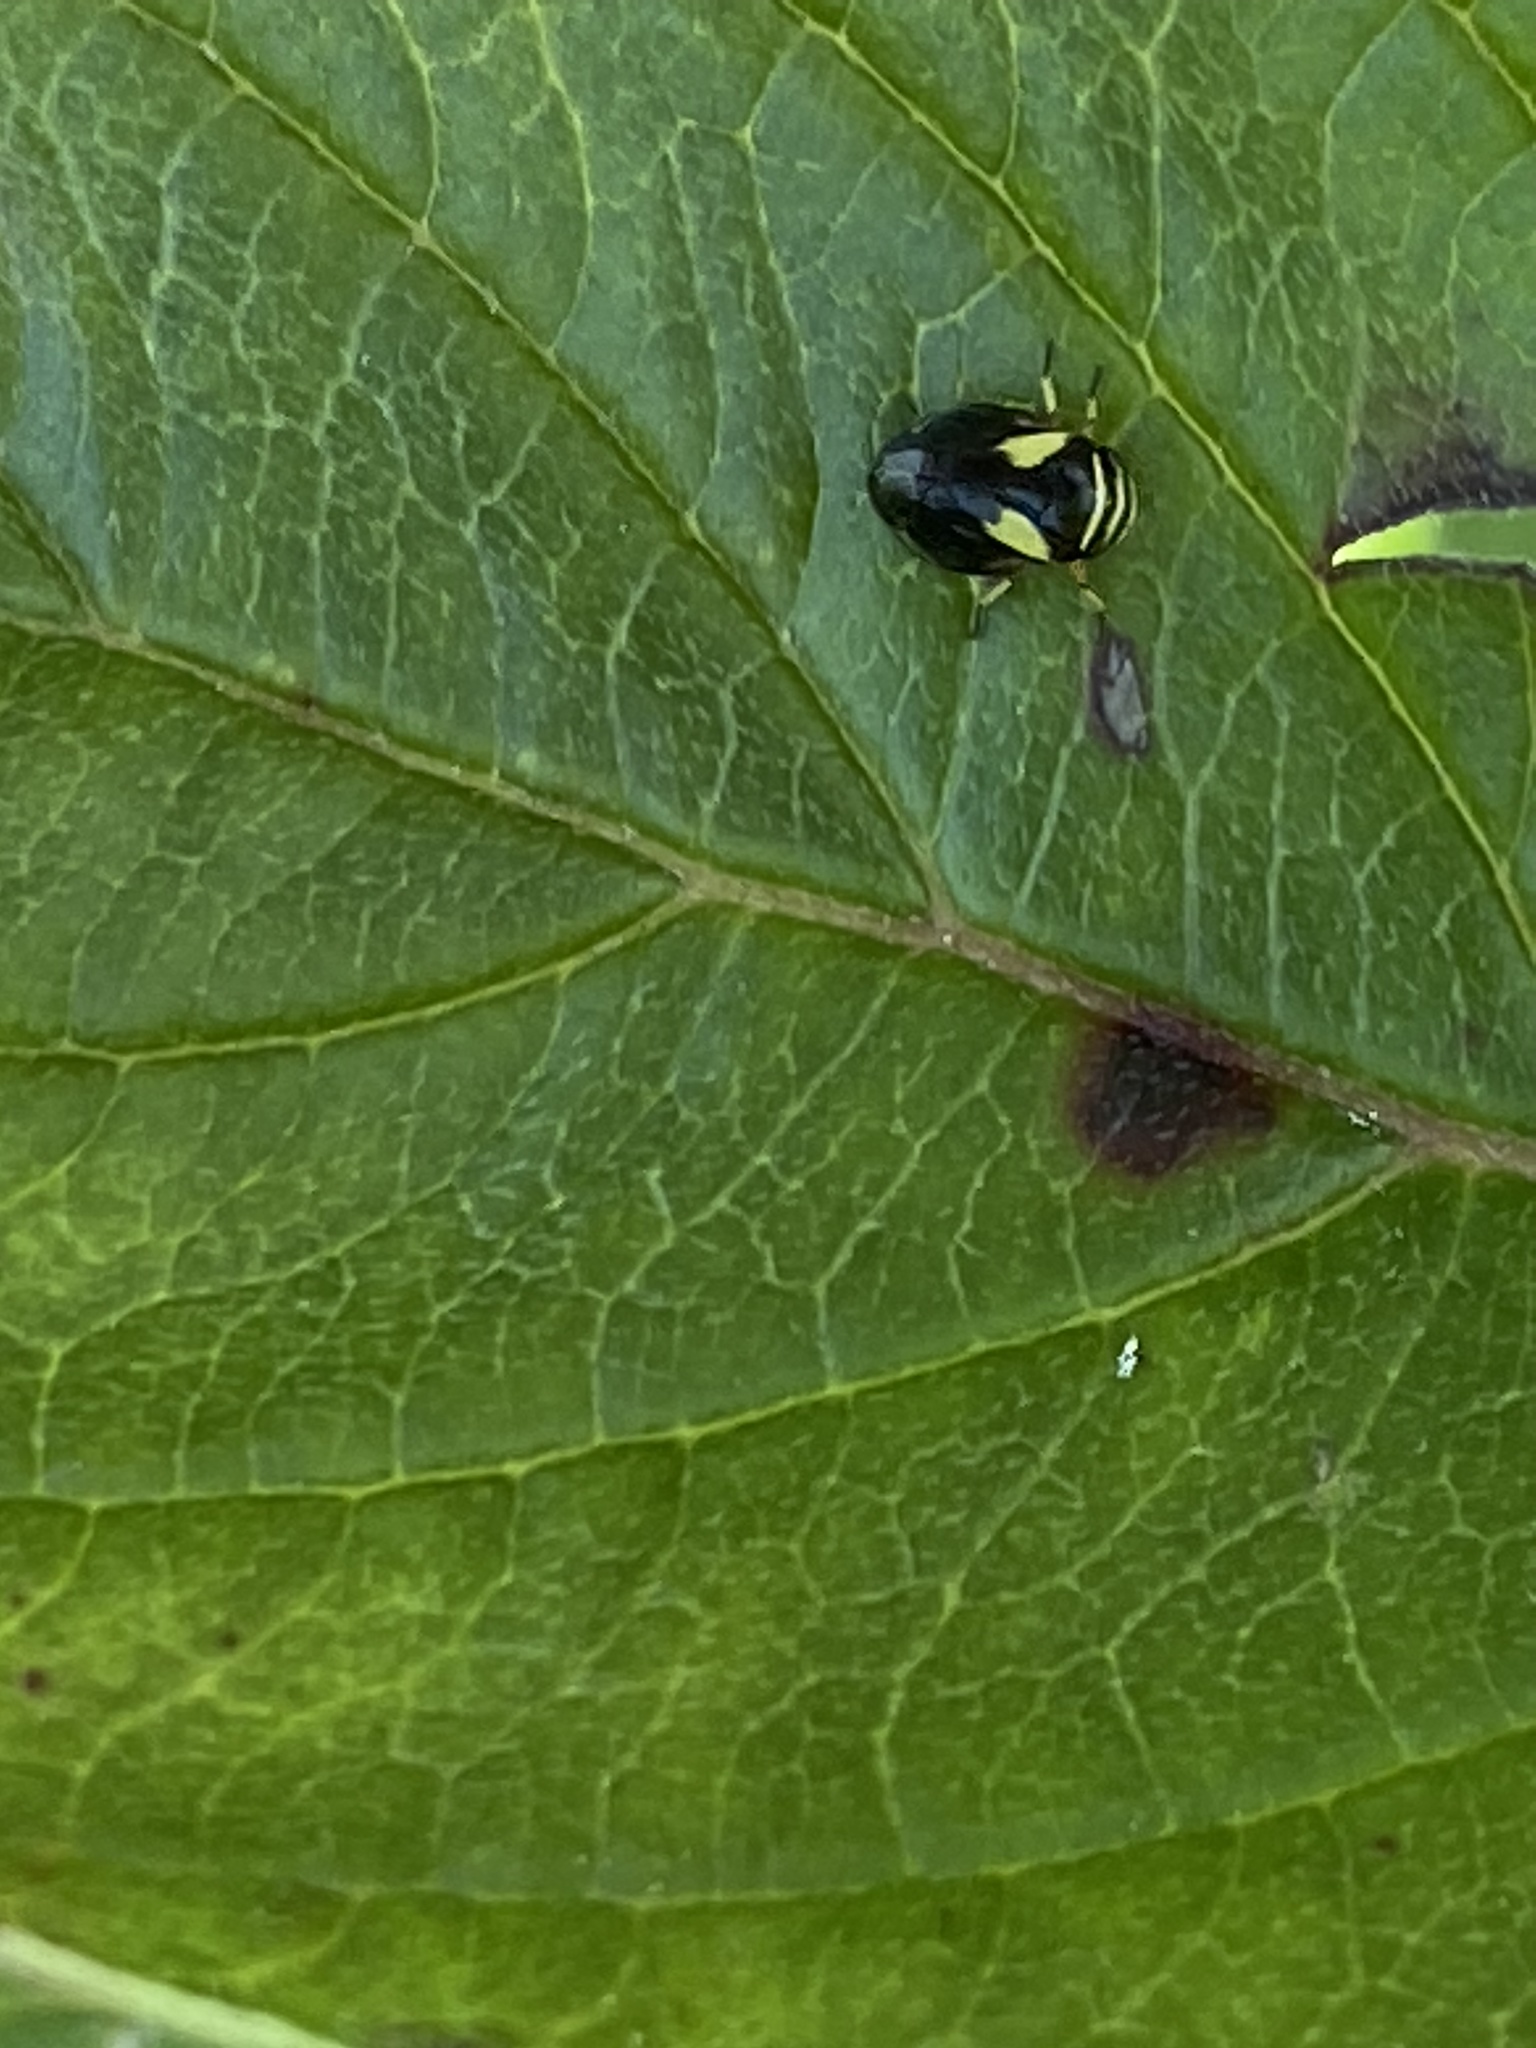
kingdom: Animalia
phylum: Arthropoda
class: Insecta
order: Hemiptera
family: Clastopteridae
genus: Clastoptera
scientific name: Clastoptera proteus
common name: Dogwood spittlebug
